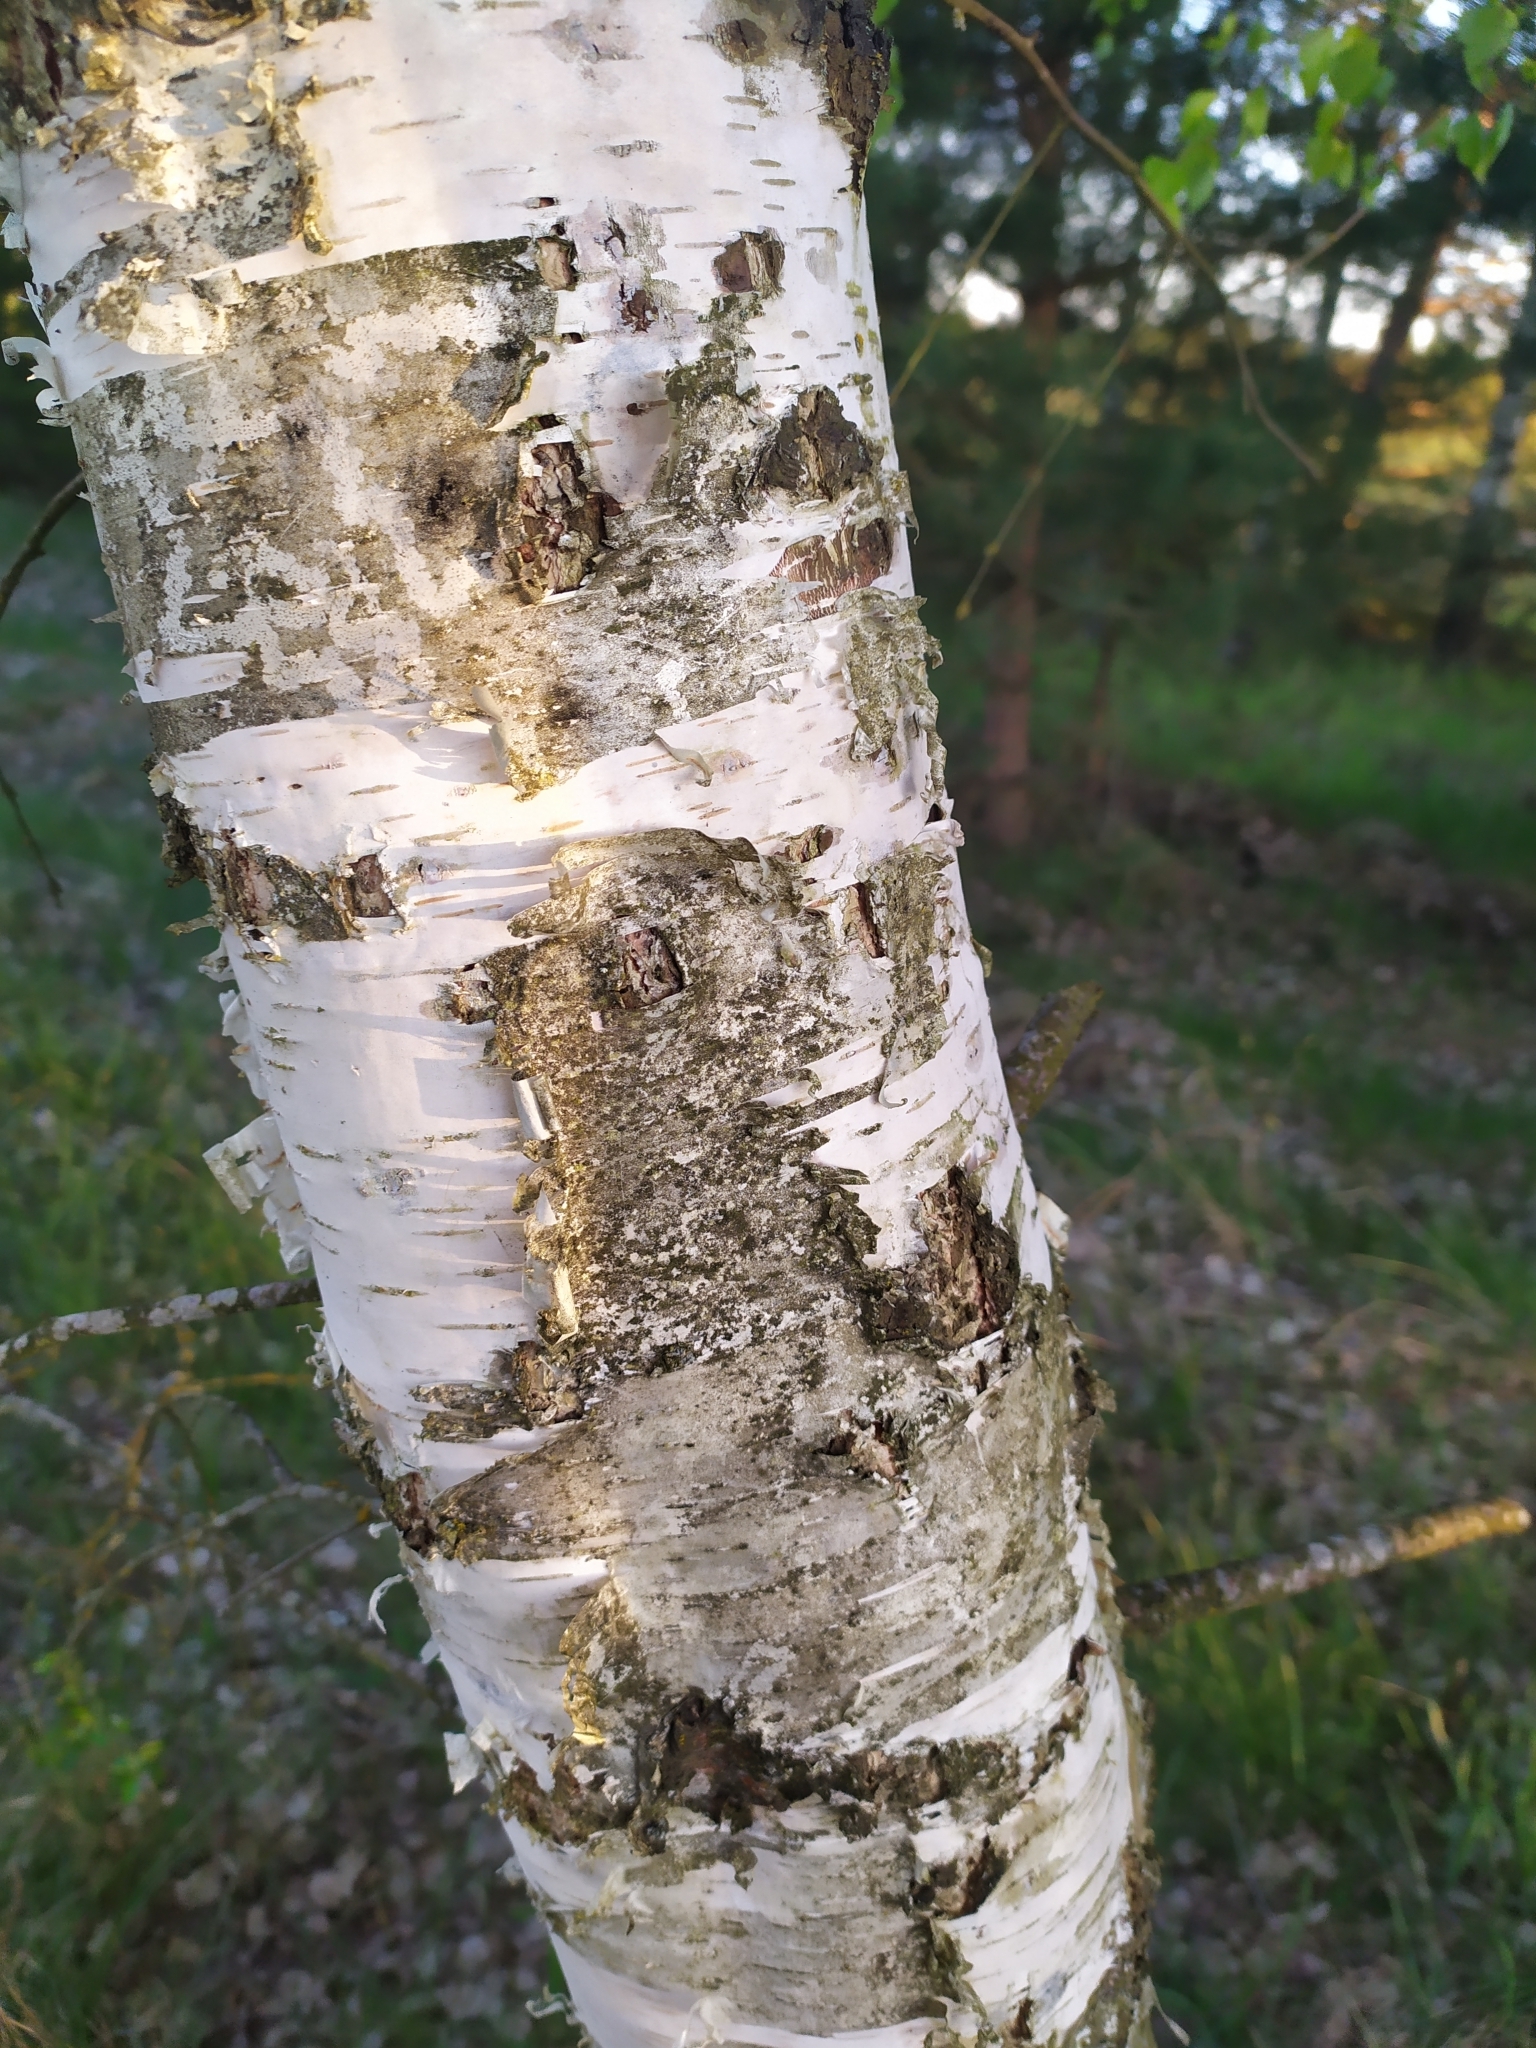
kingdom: Plantae
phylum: Tracheophyta
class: Magnoliopsida
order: Fagales
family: Betulaceae
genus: Betula
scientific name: Betula pendula
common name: Silver birch
